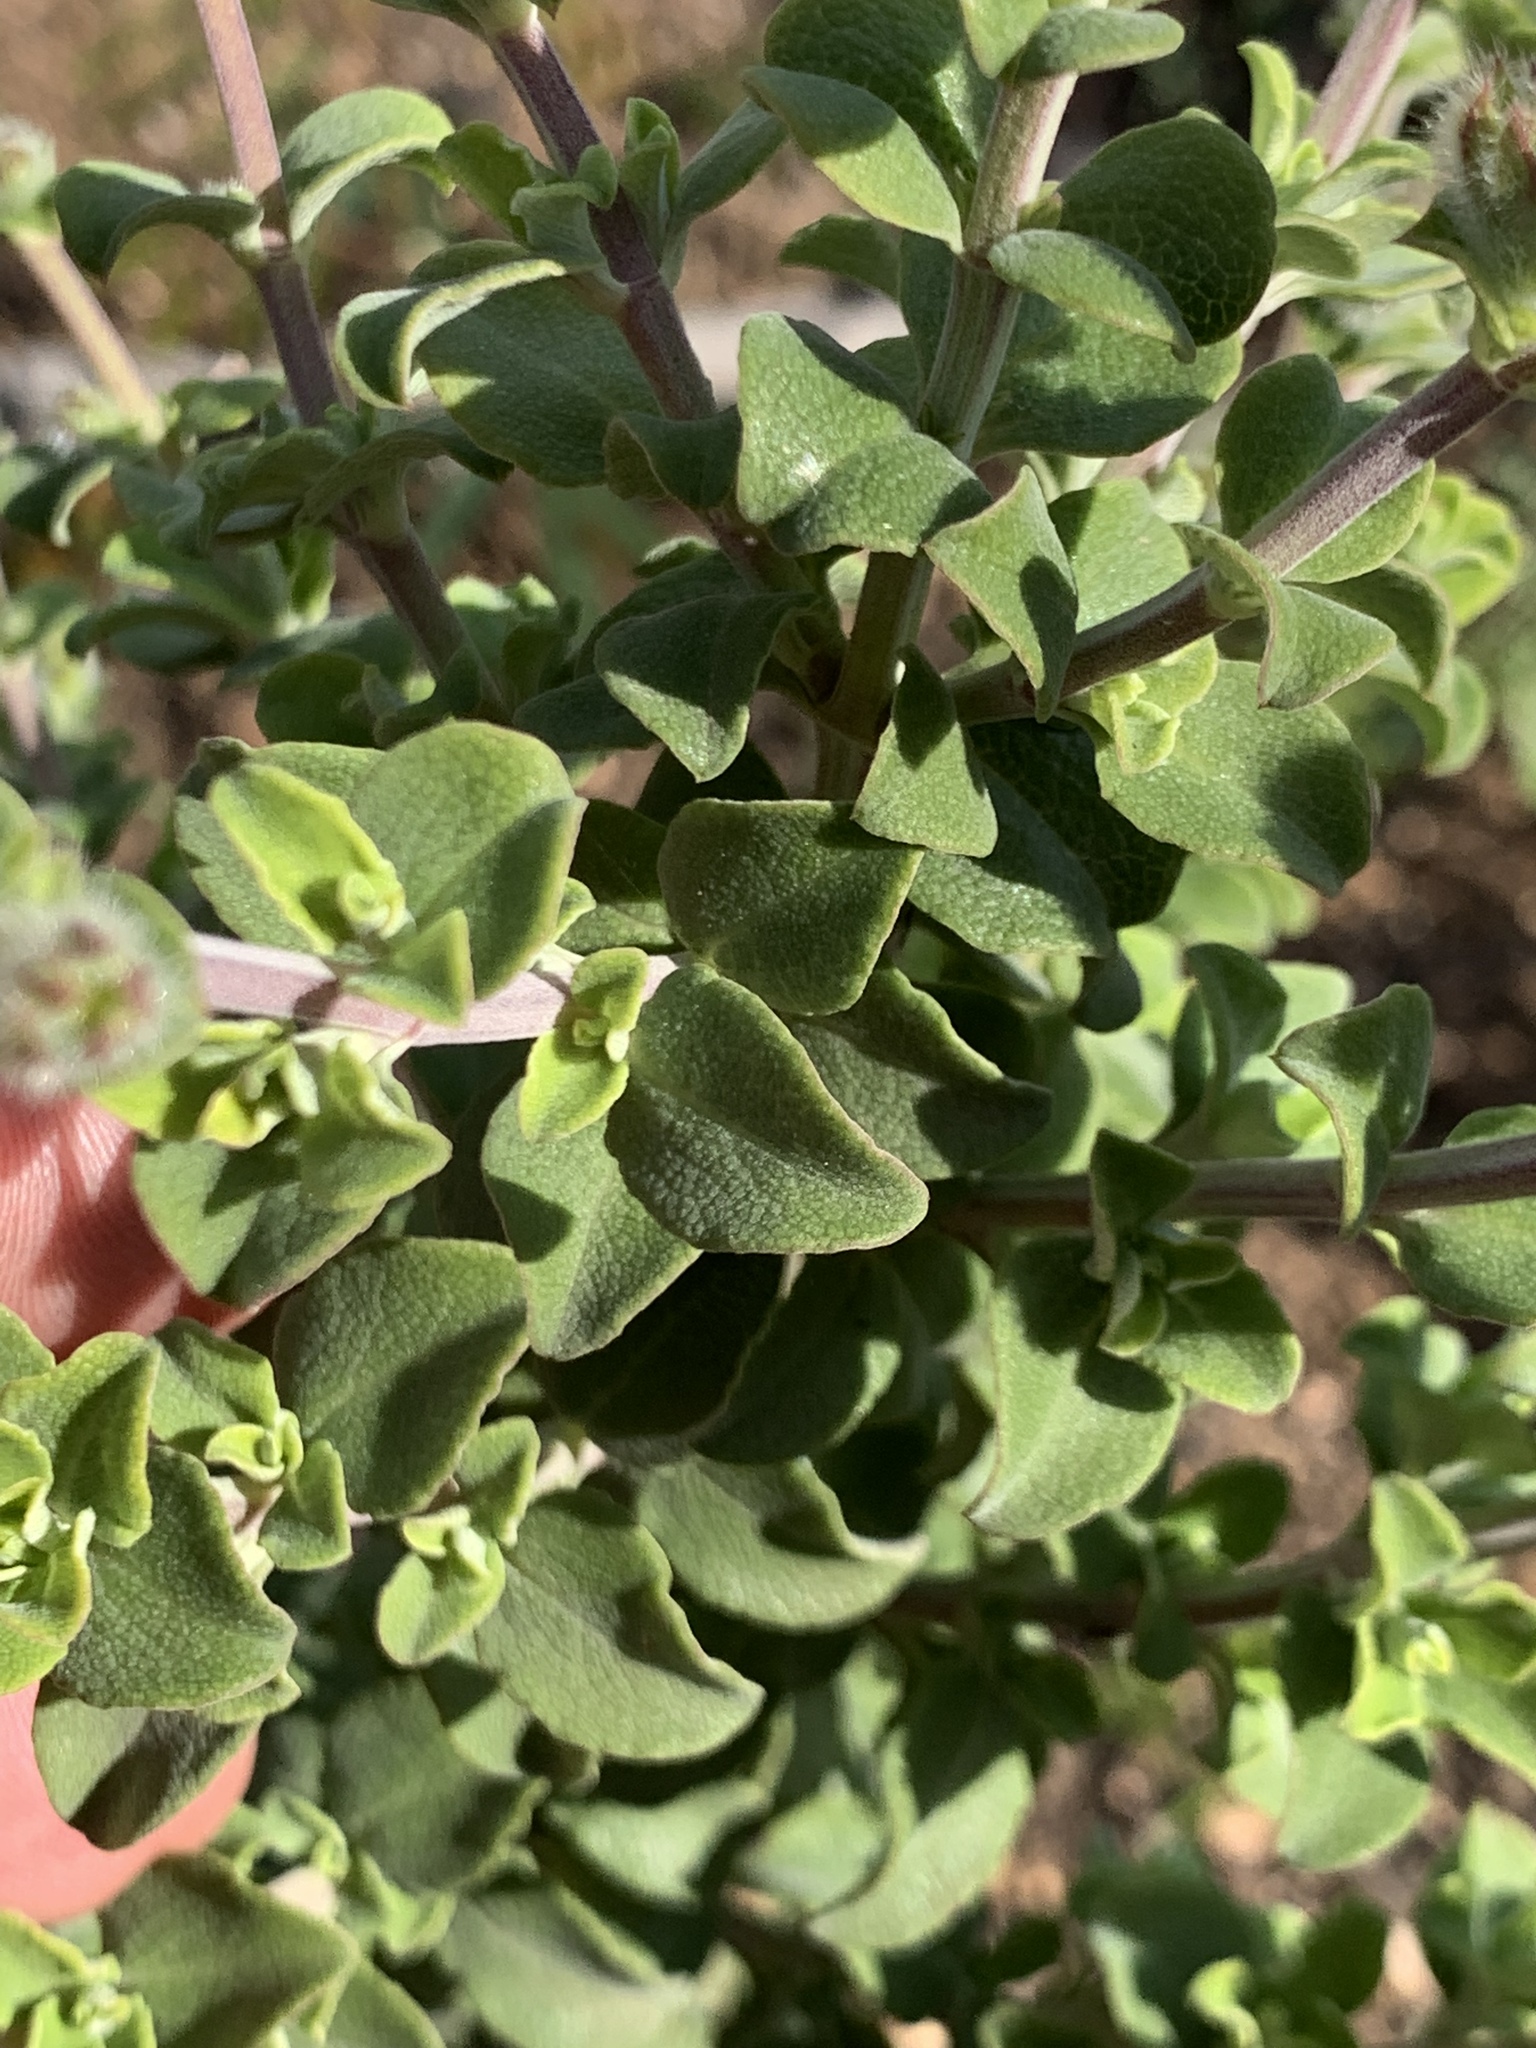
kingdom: Plantae
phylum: Tracheophyta
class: Magnoliopsida
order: Lamiales
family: Lamiaceae
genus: Salvia
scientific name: Salvia africana
